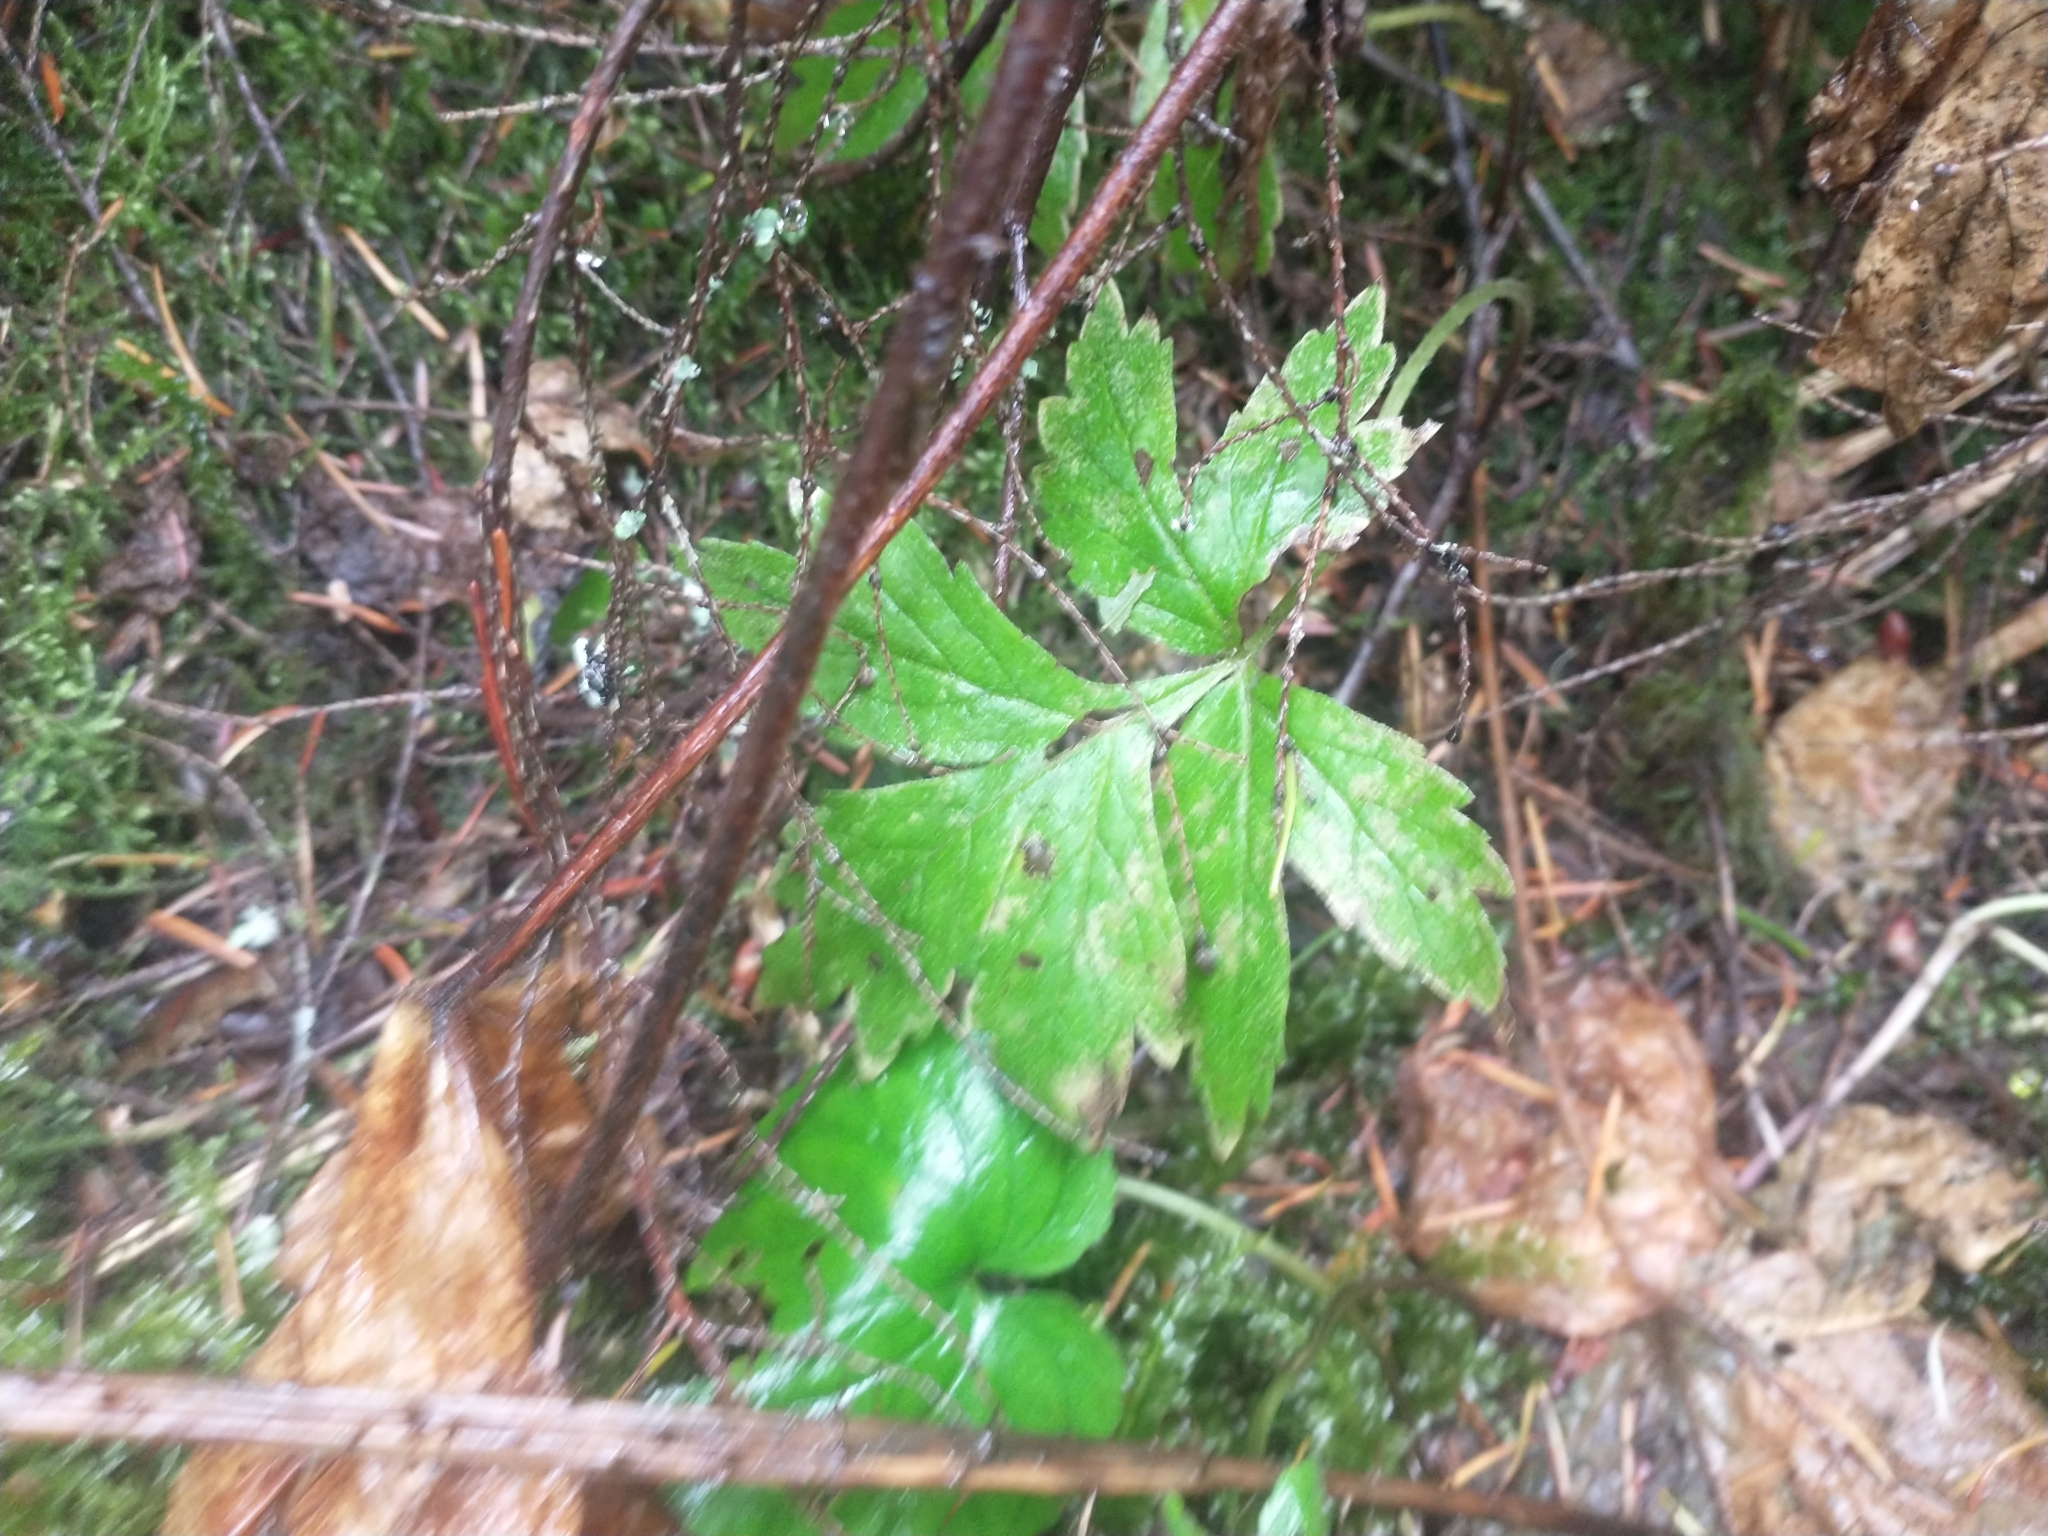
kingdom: Plantae
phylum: Tracheophyta
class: Magnoliopsida
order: Boraginales
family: Hydrophyllaceae
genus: Hydrophyllum
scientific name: Hydrophyllum tenuipes
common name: Pacific waterleaf
